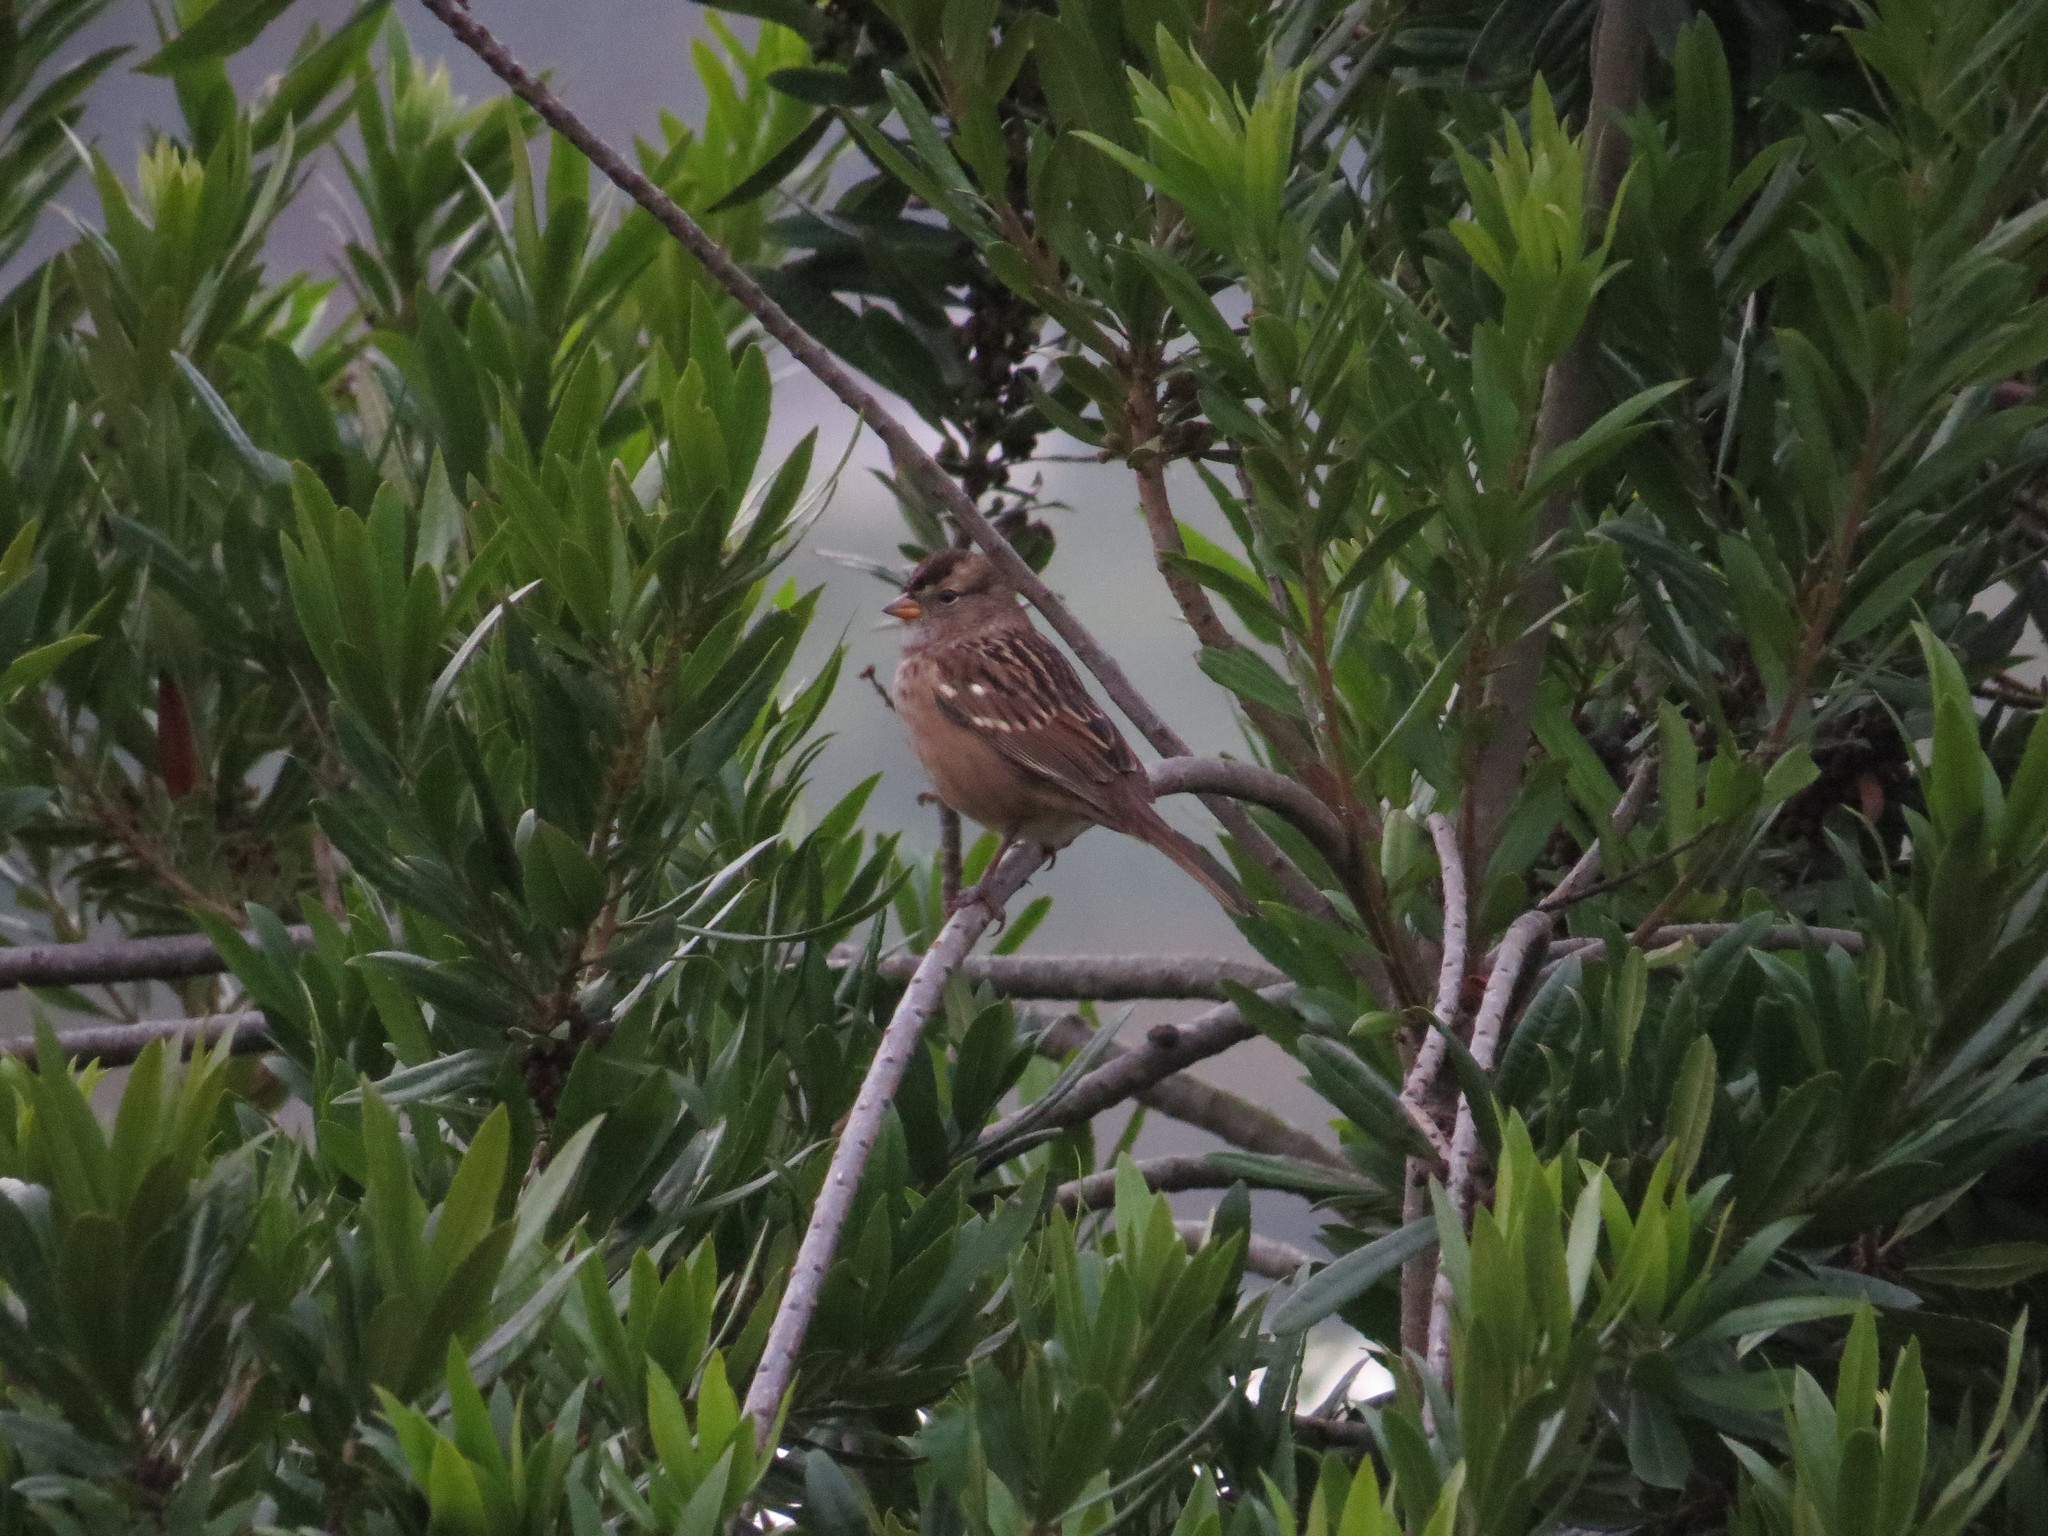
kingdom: Animalia
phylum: Chordata
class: Aves
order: Passeriformes
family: Passerellidae
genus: Zonotrichia
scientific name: Zonotrichia leucophrys
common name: White-crowned sparrow
